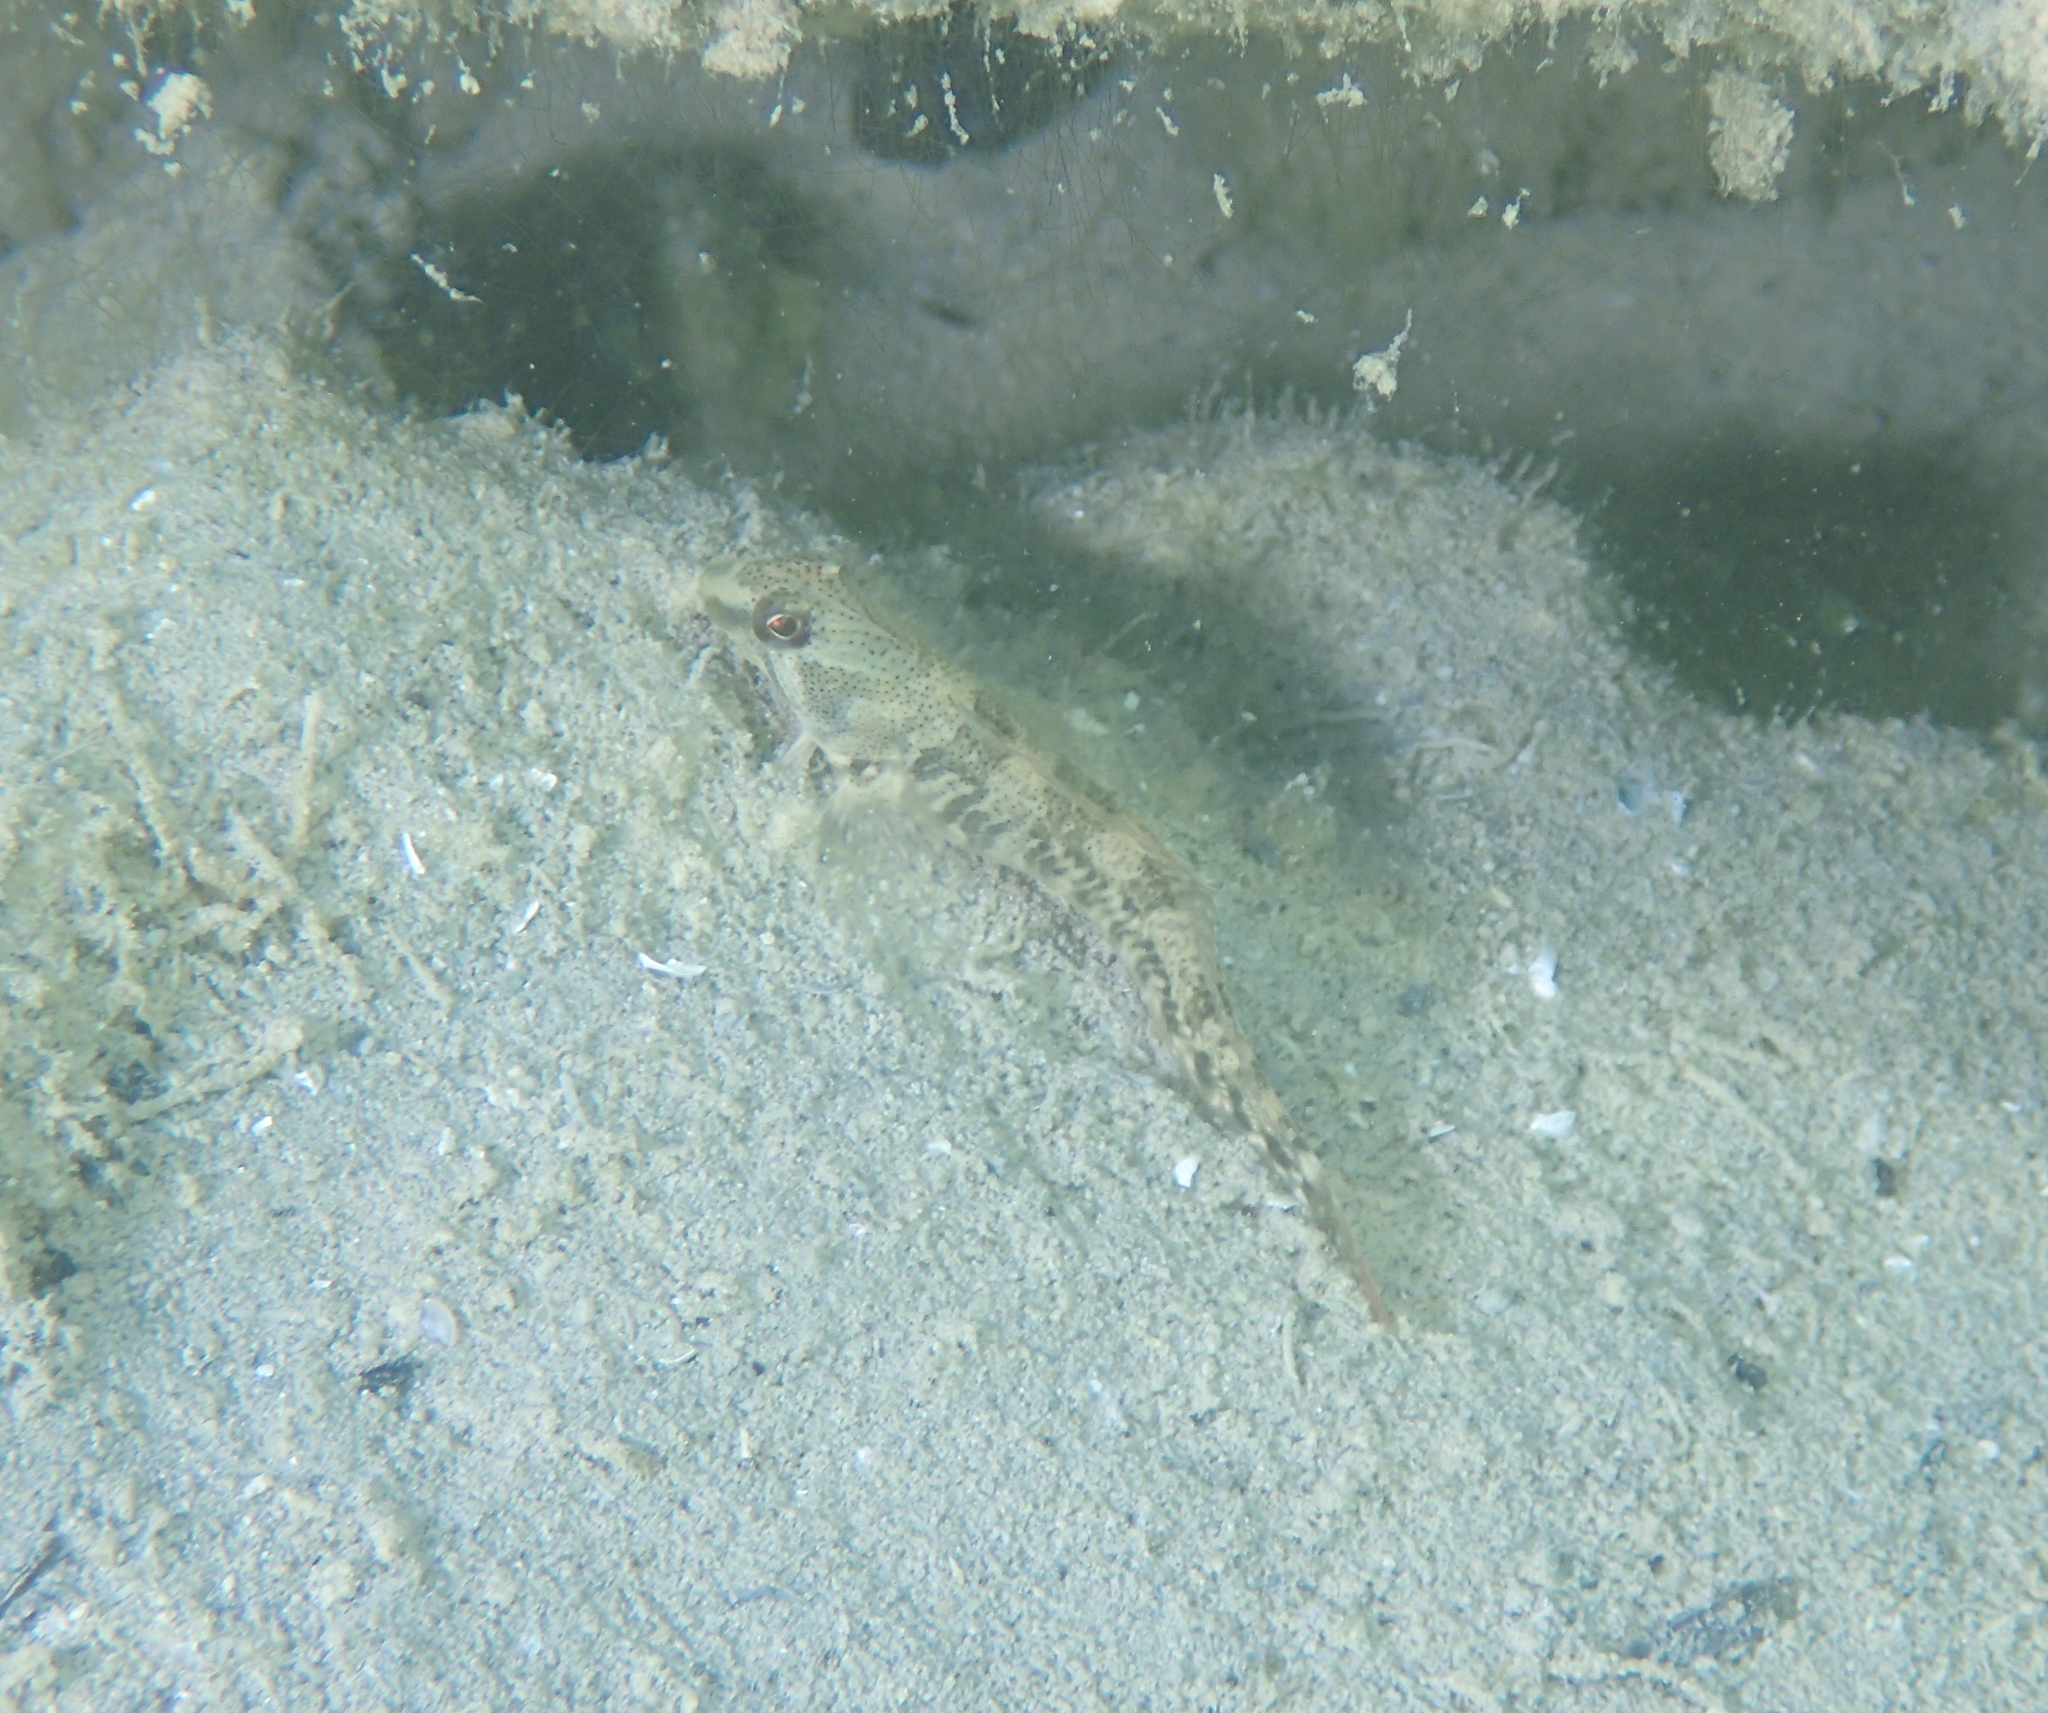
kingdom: Animalia
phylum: Chordata
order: Perciformes
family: Blenniidae
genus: Salaria
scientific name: Salaria fluviatilis
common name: Freshwater blenny
